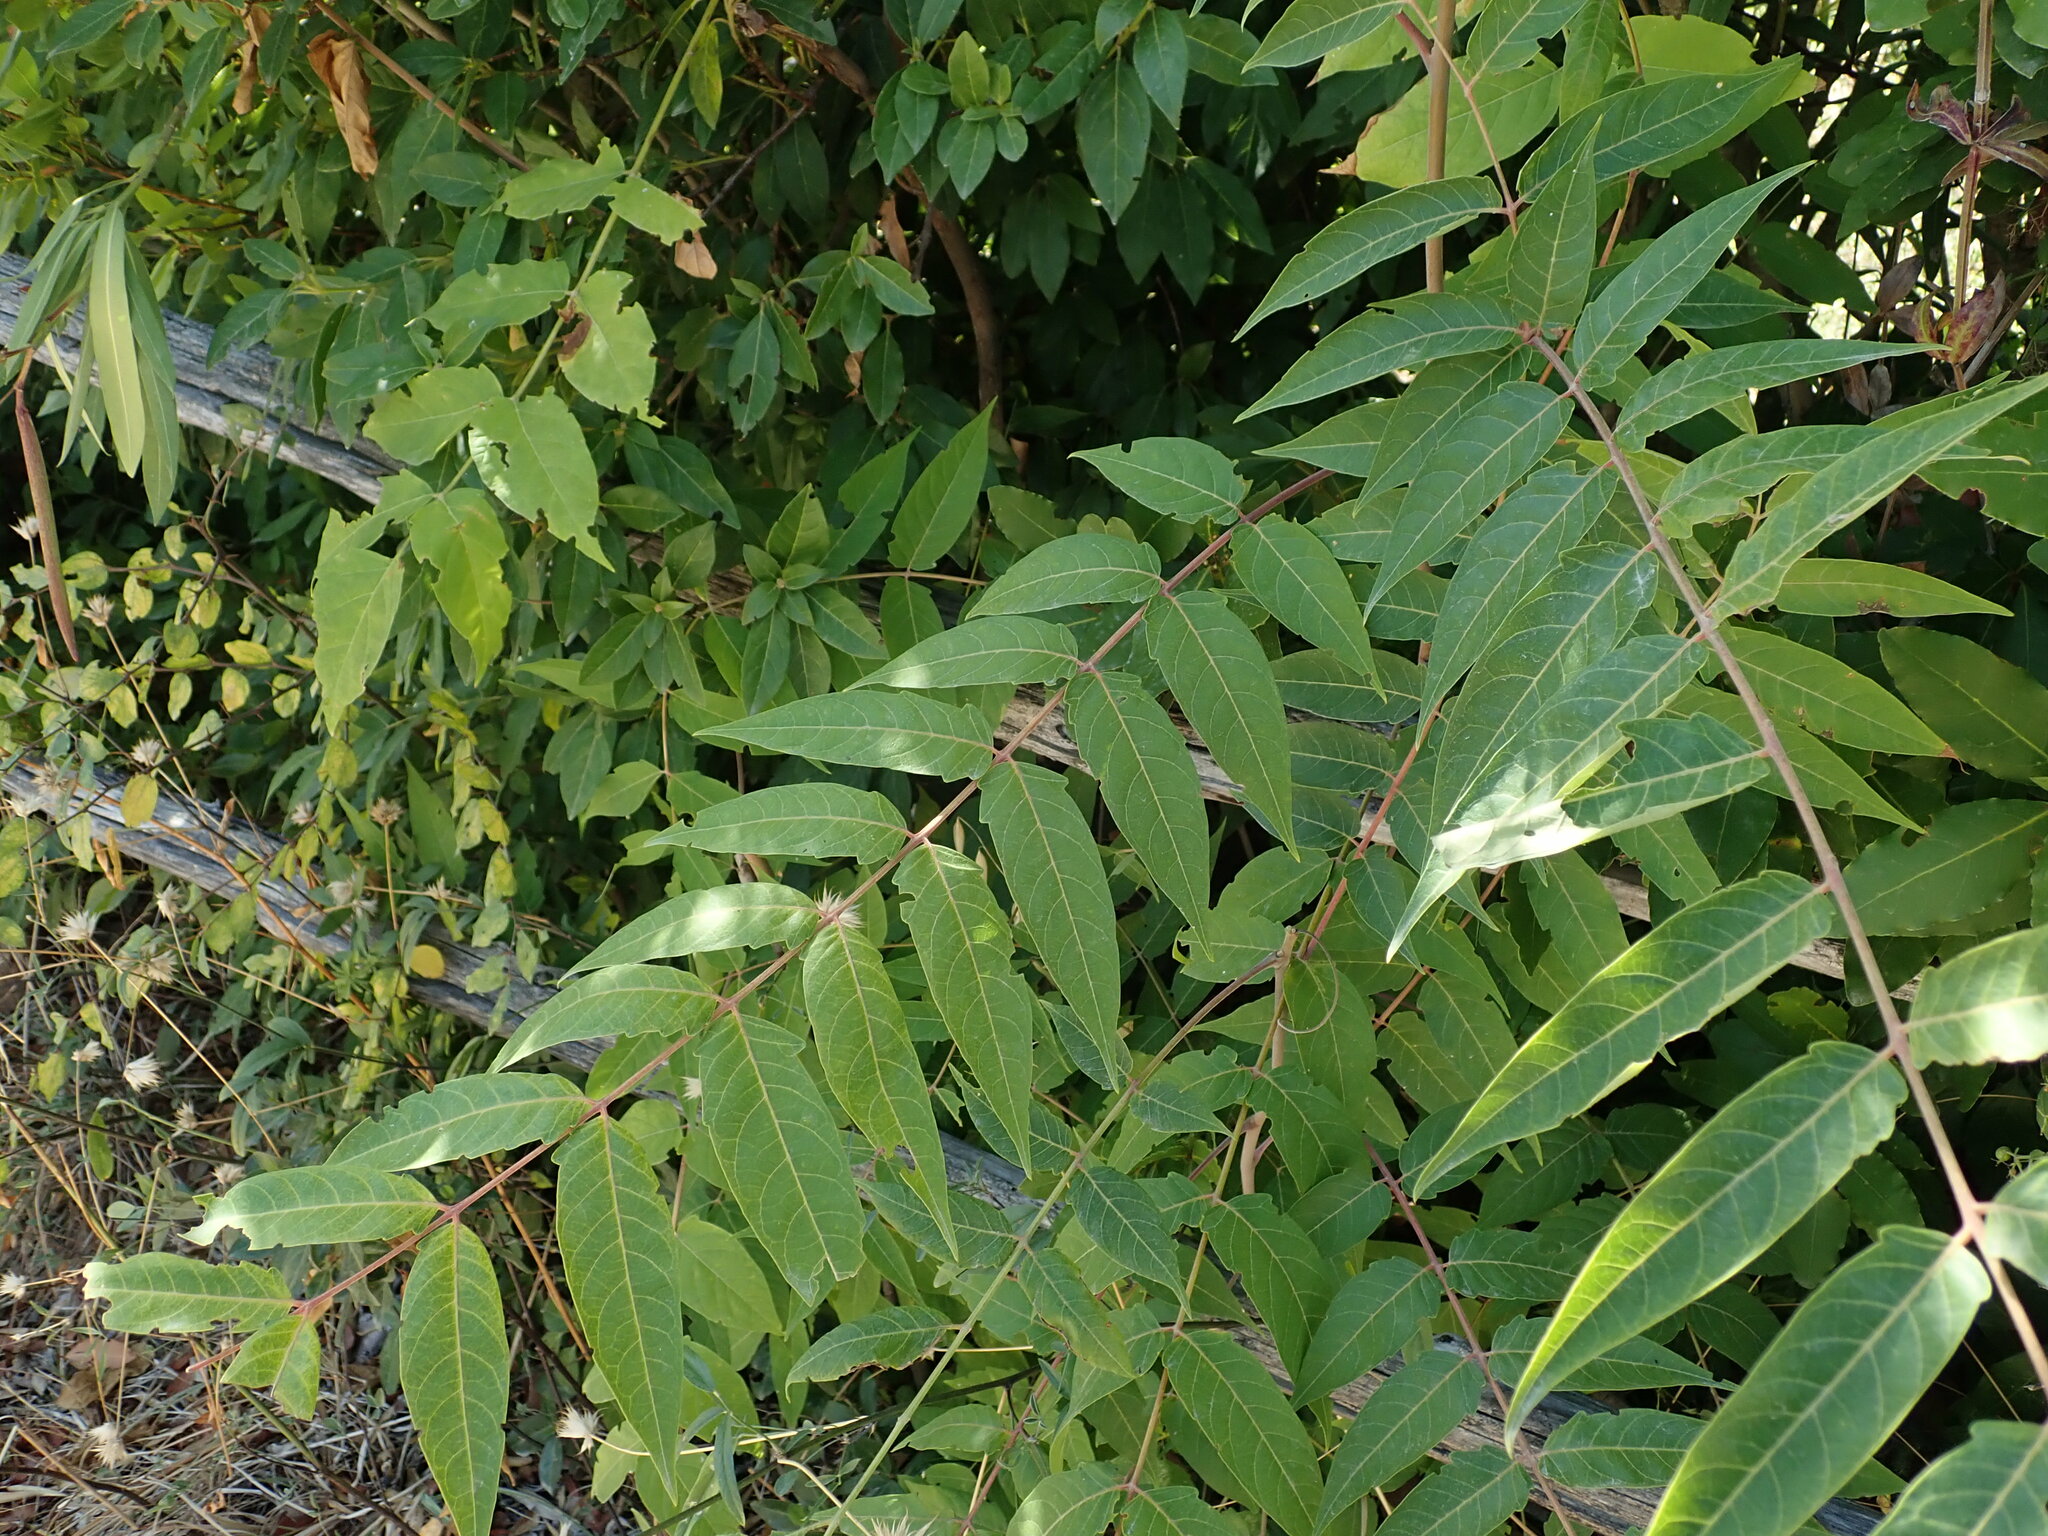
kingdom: Plantae
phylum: Tracheophyta
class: Magnoliopsida
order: Sapindales
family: Simaroubaceae
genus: Ailanthus
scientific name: Ailanthus altissima
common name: Tree-of-heaven
